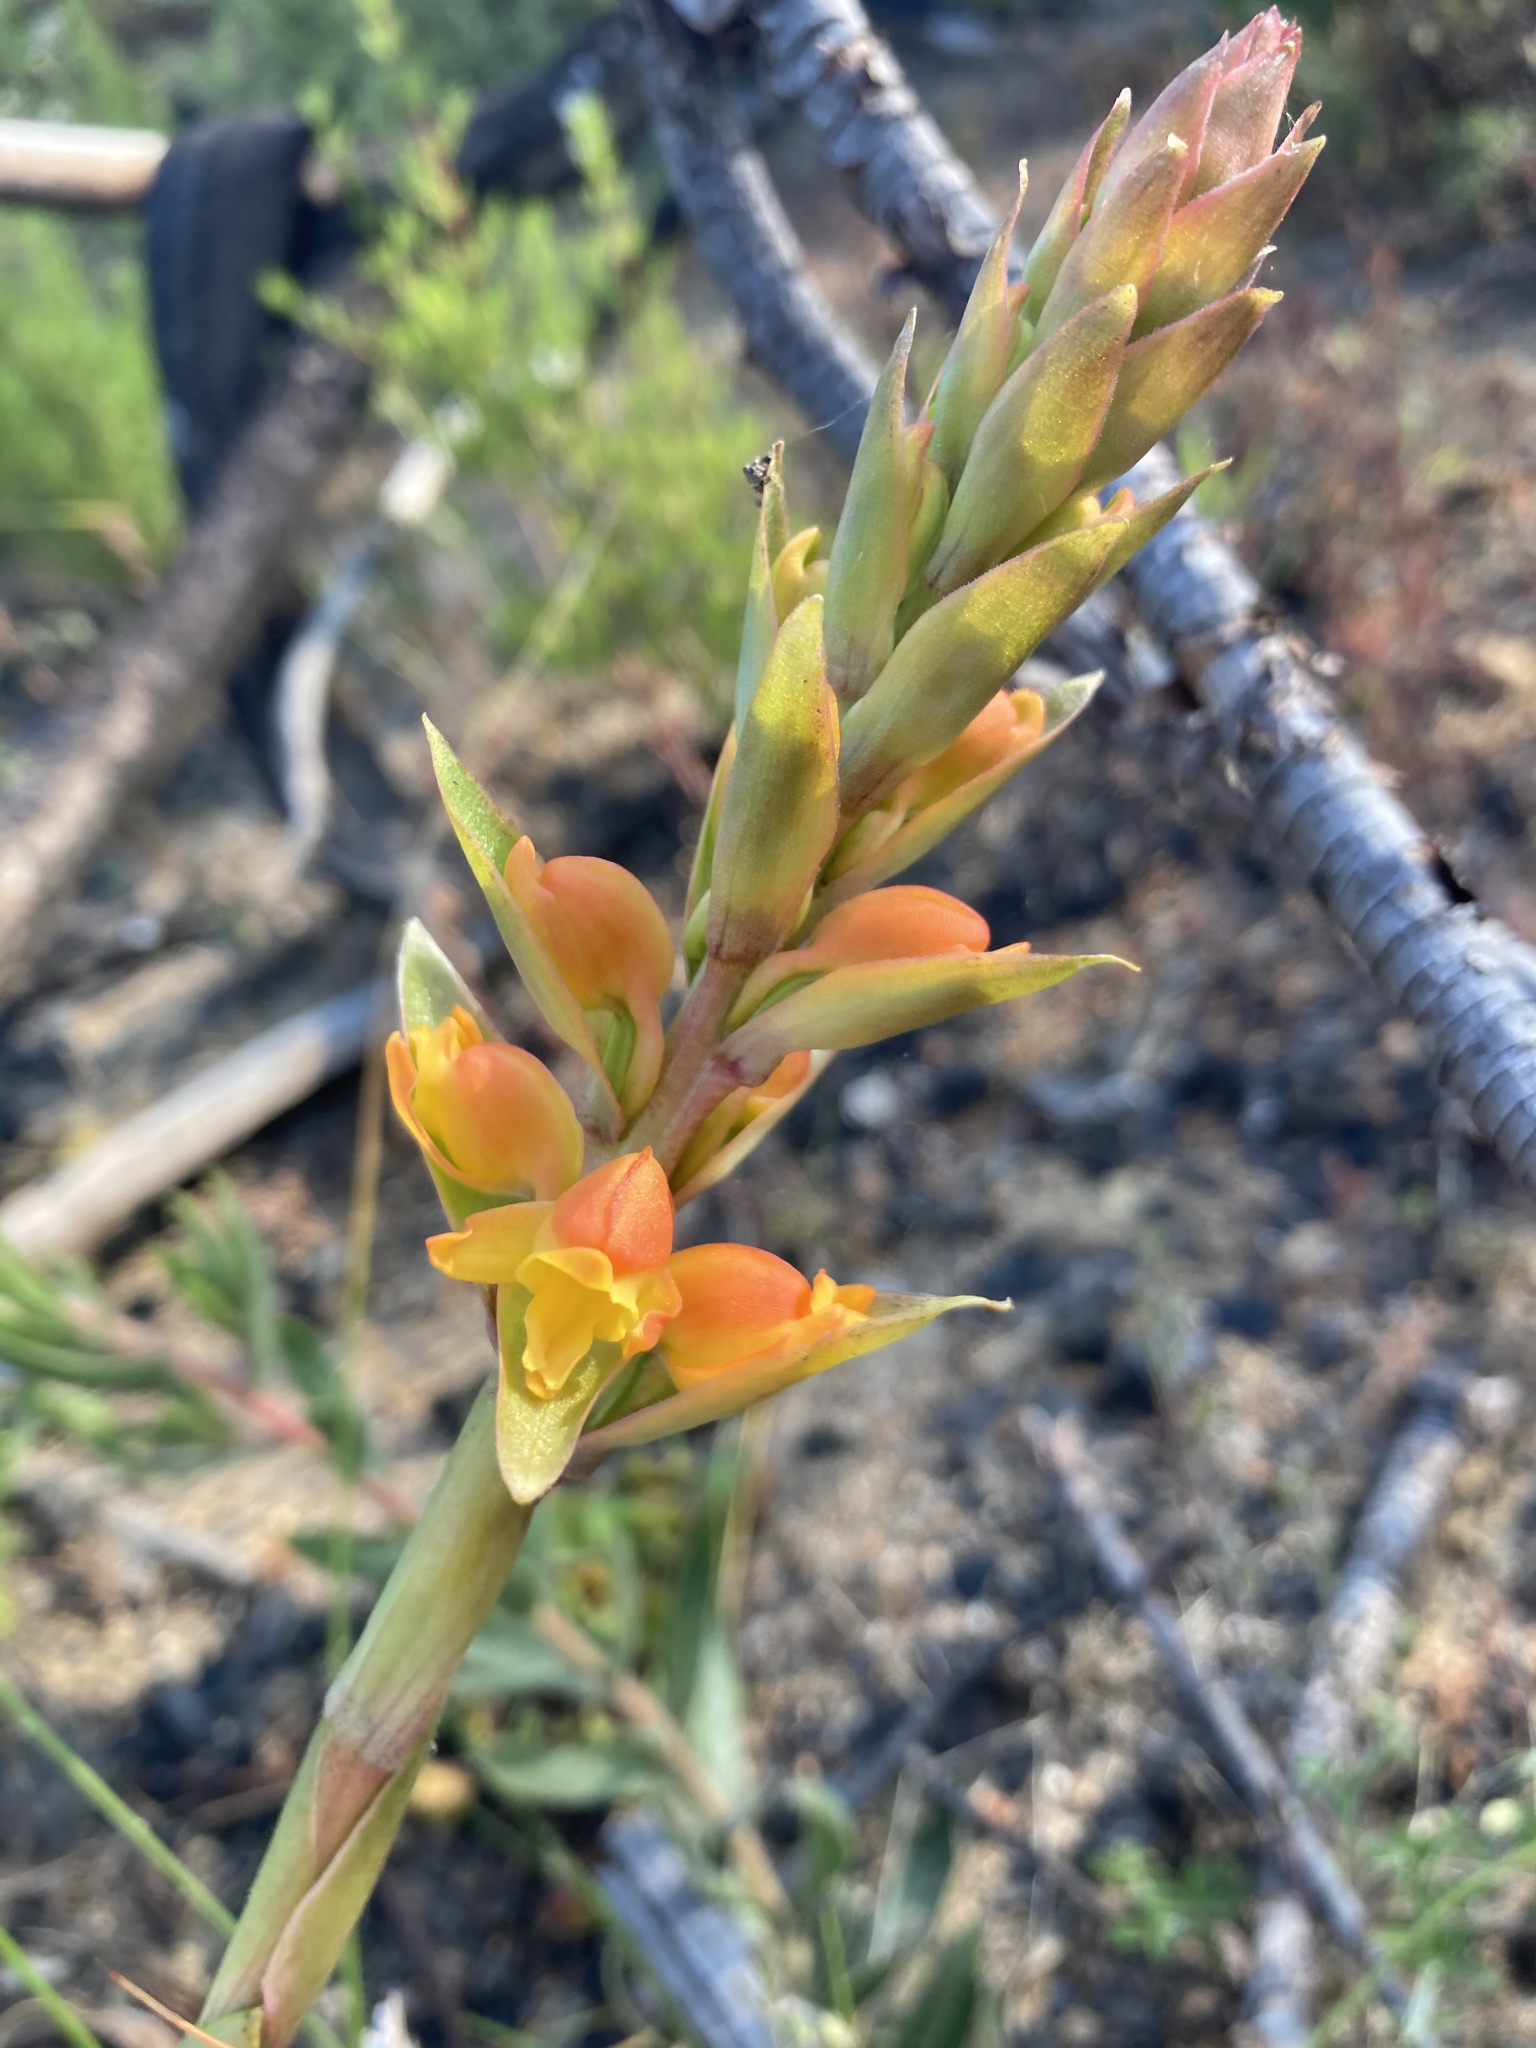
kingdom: Plantae
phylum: Tracheophyta
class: Liliopsida
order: Asparagales
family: Orchidaceae
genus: Satyrium
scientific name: Satyrium coriifolium
